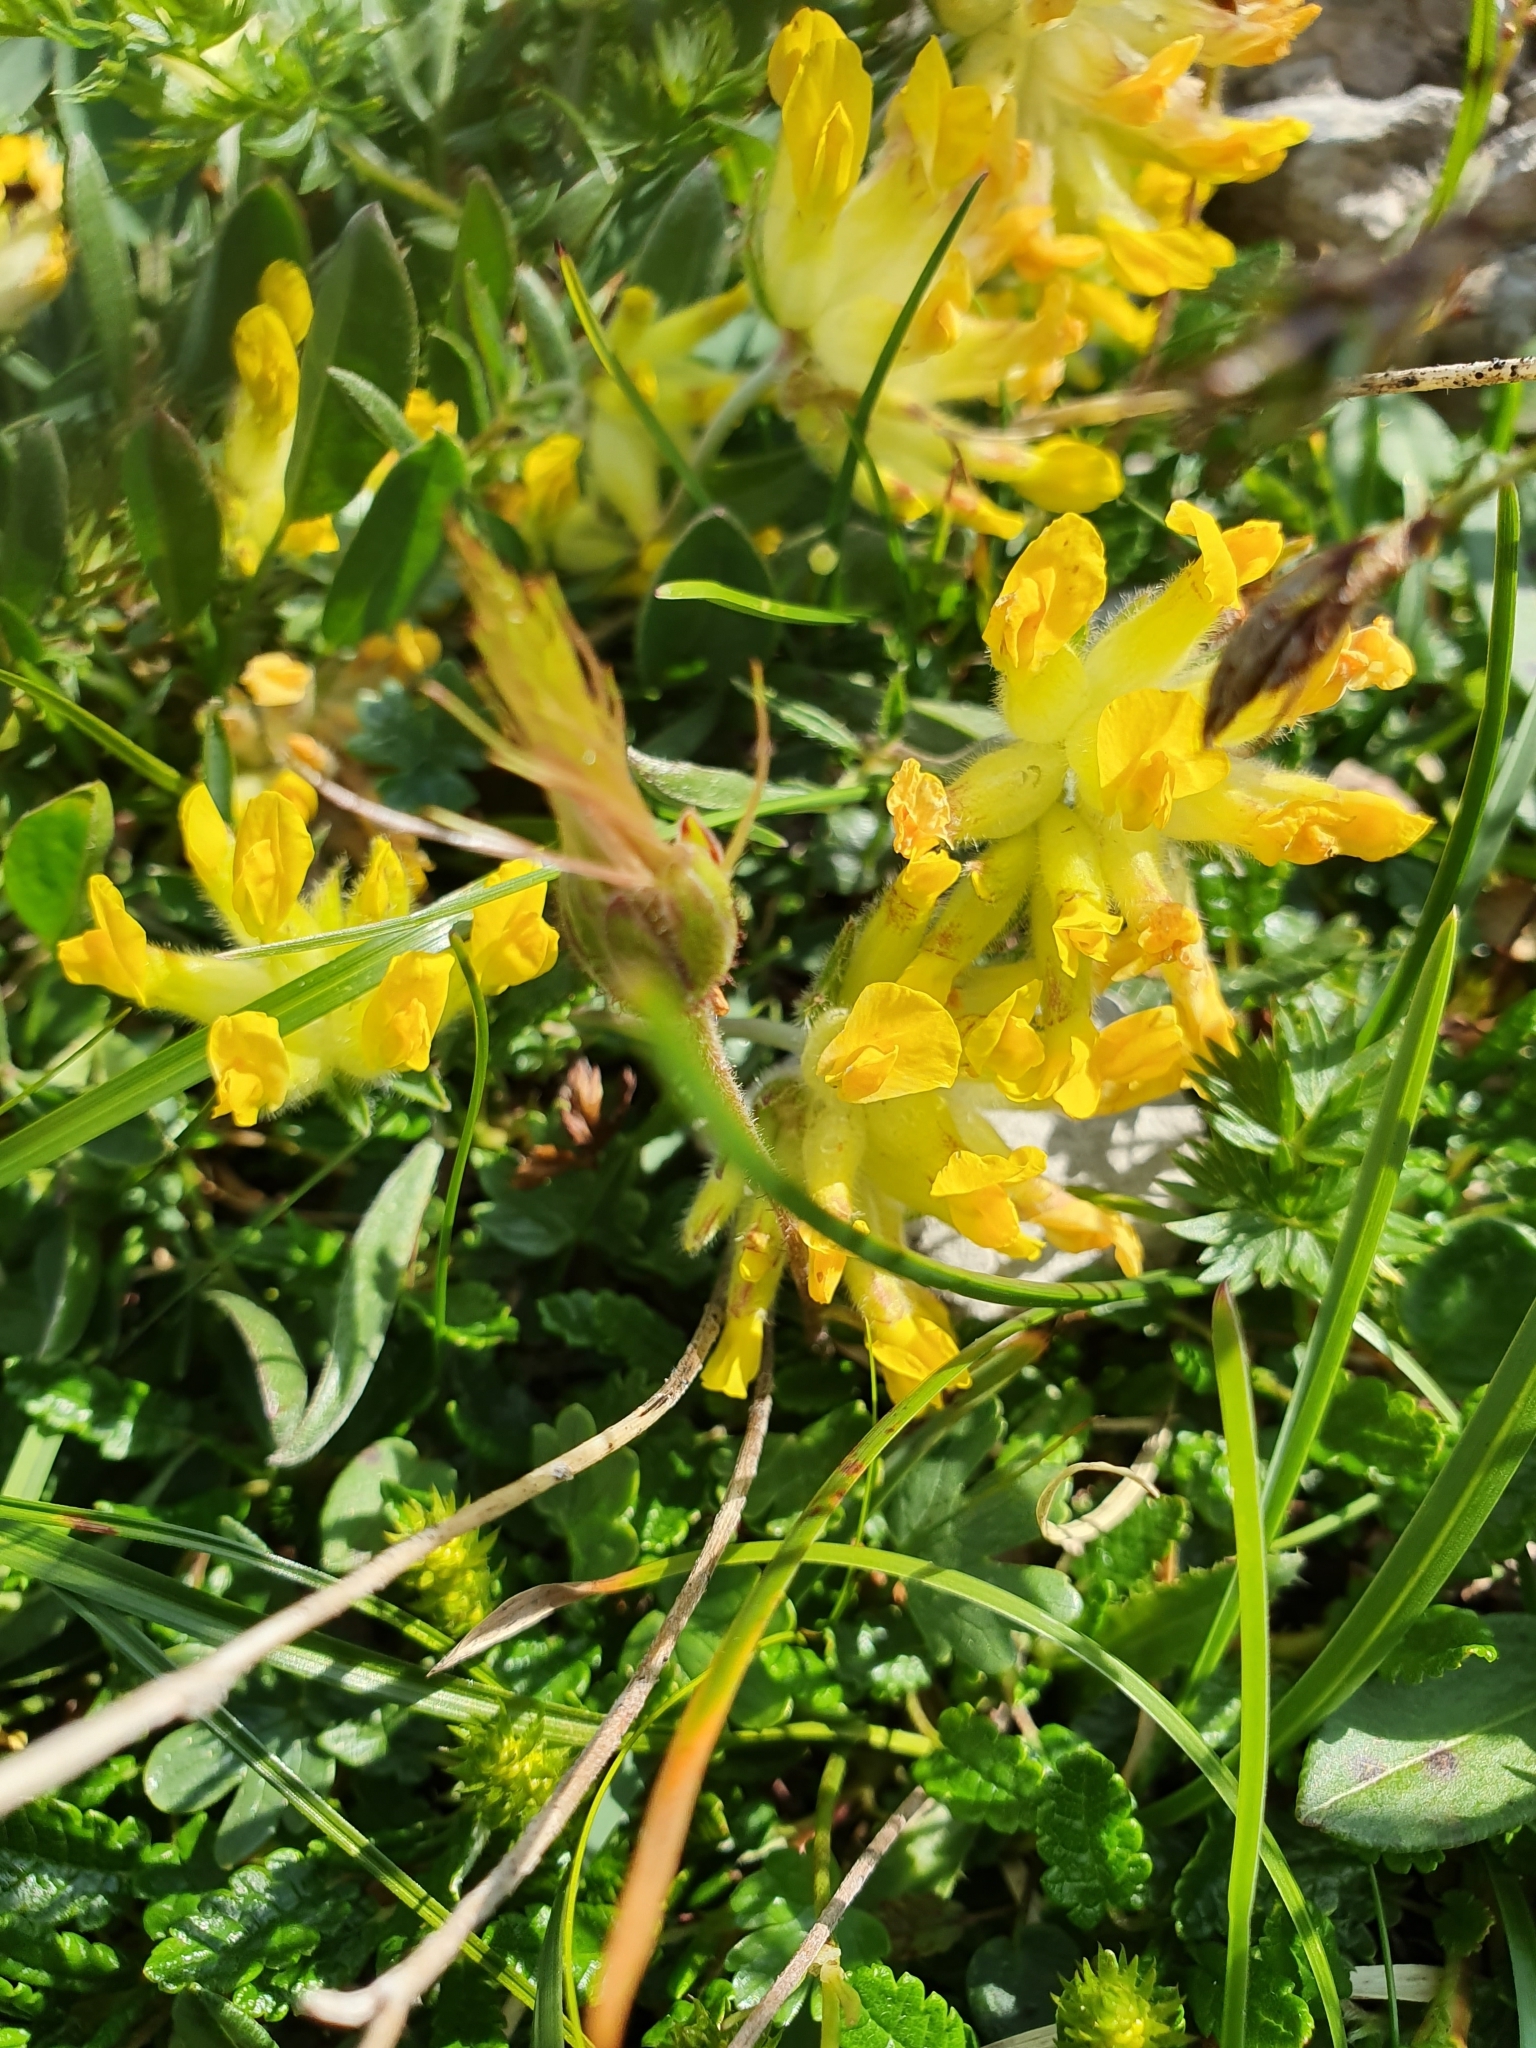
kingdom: Plantae
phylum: Tracheophyta
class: Magnoliopsida
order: Fabales
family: Fabaceae
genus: Anthyllis
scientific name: Anthyllis vulneraria
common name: Kidney vetch
